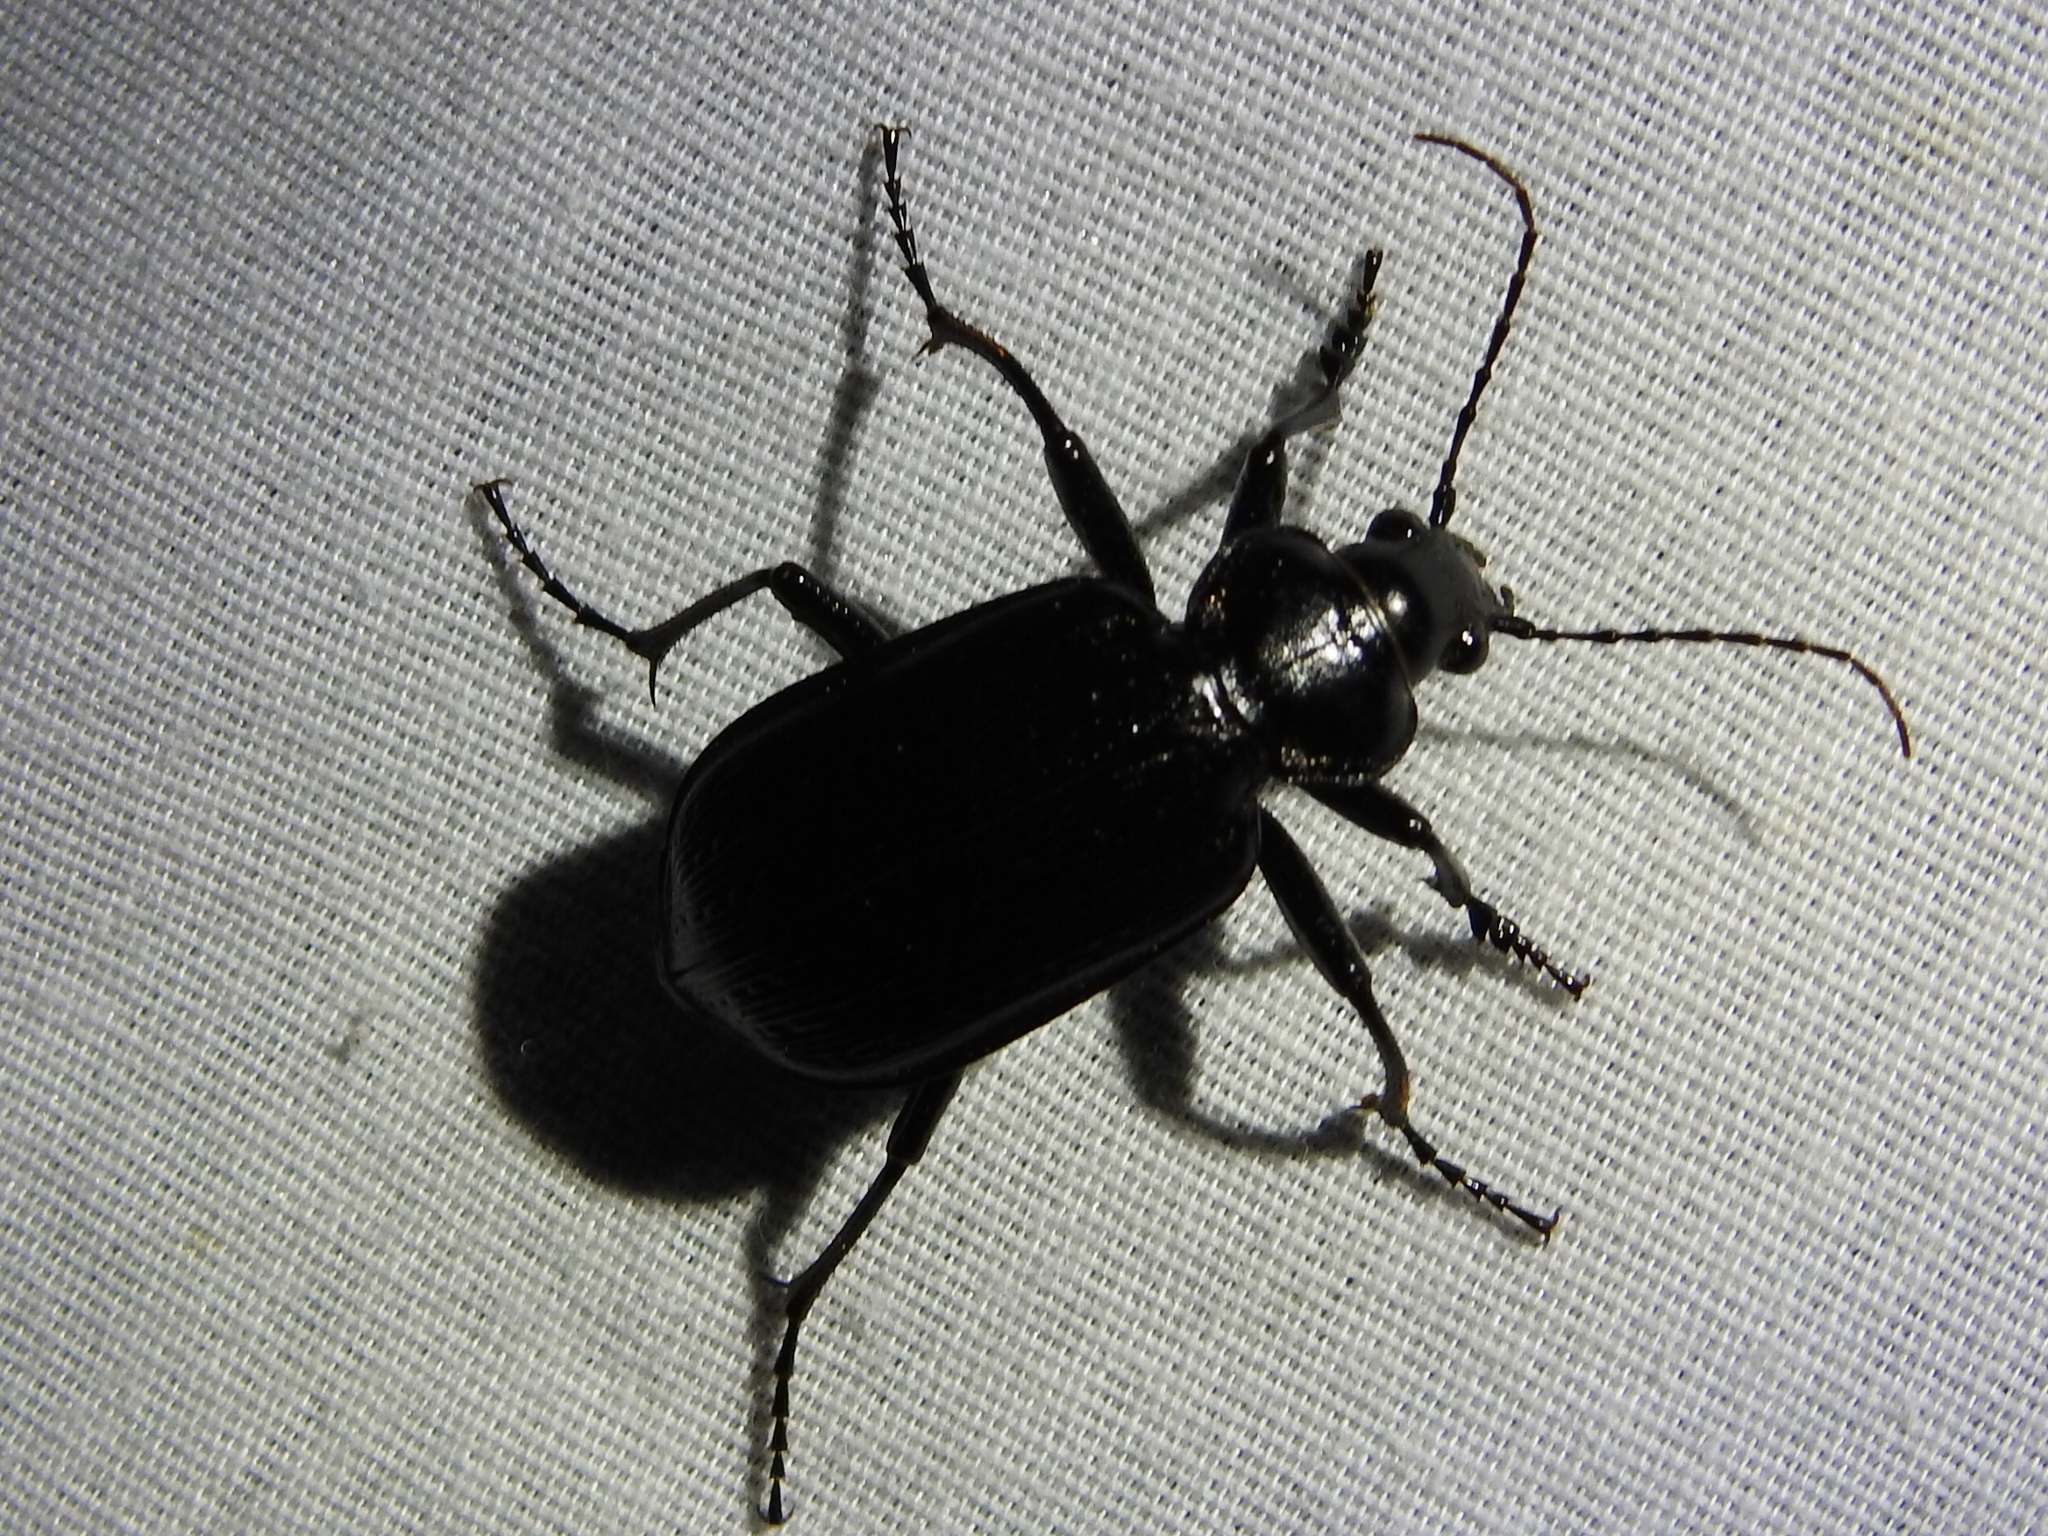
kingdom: Animalia
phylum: Arthropoda
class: Insecta
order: Coleoptera
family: Carabidae
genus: Calosoma
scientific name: Calosoma sayi
